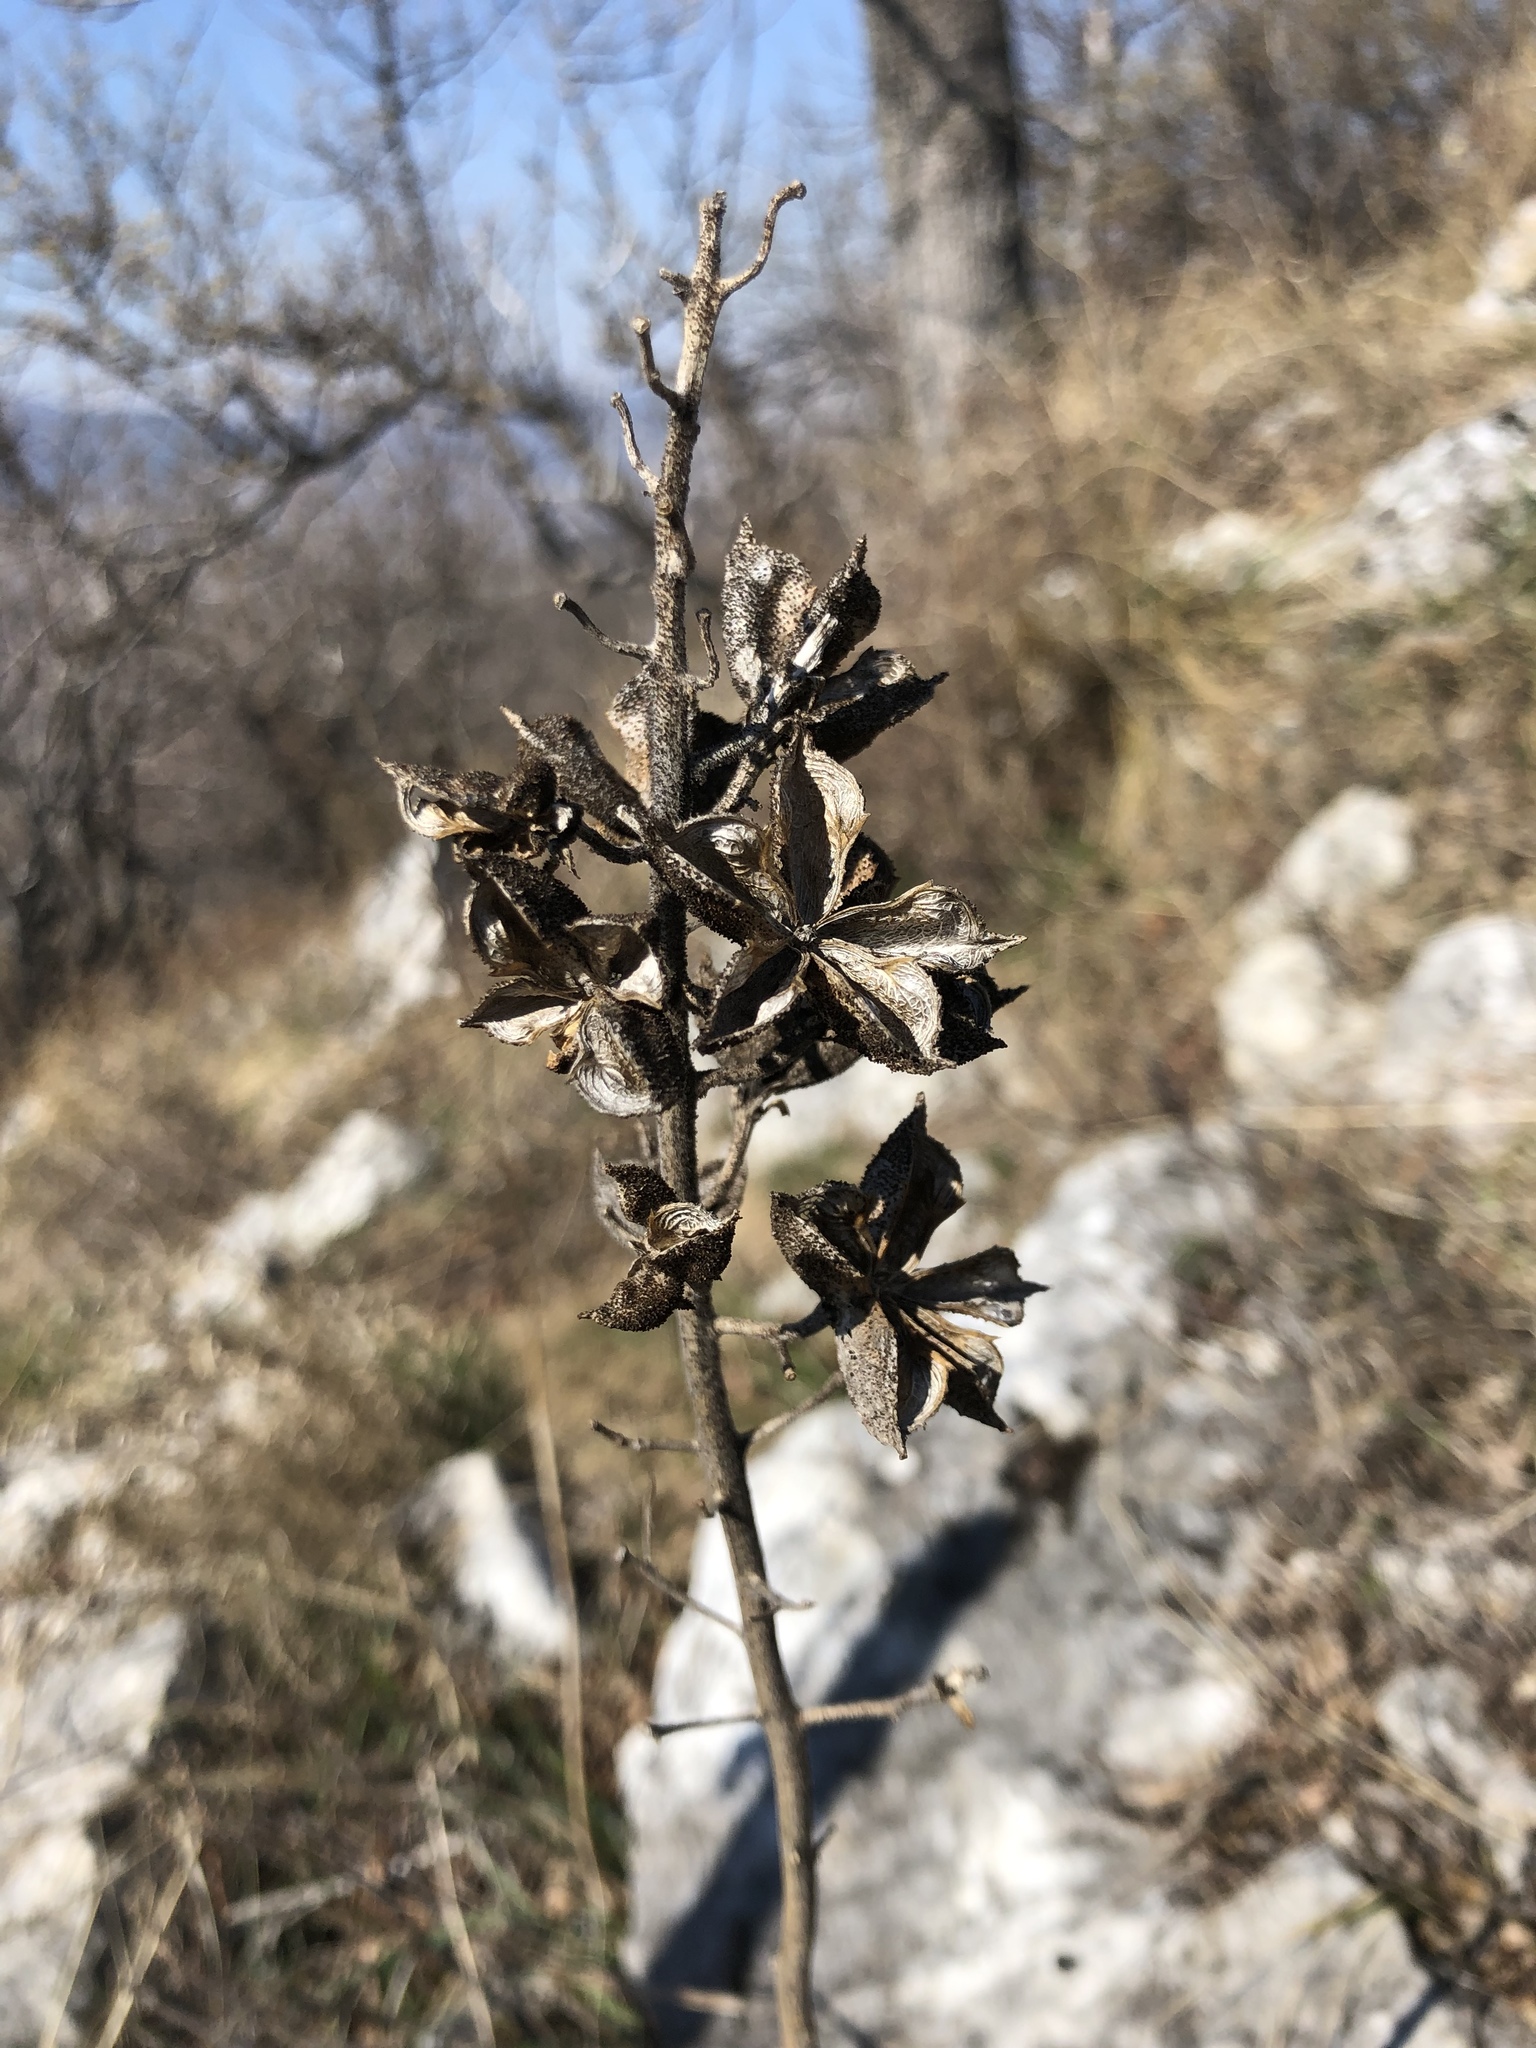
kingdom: Plantae
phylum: Tracheophyta
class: Magnoliopsida
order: Sapindales
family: Rutaceae
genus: Dictamnus
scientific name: Dictamnus albus
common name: Gasplant
